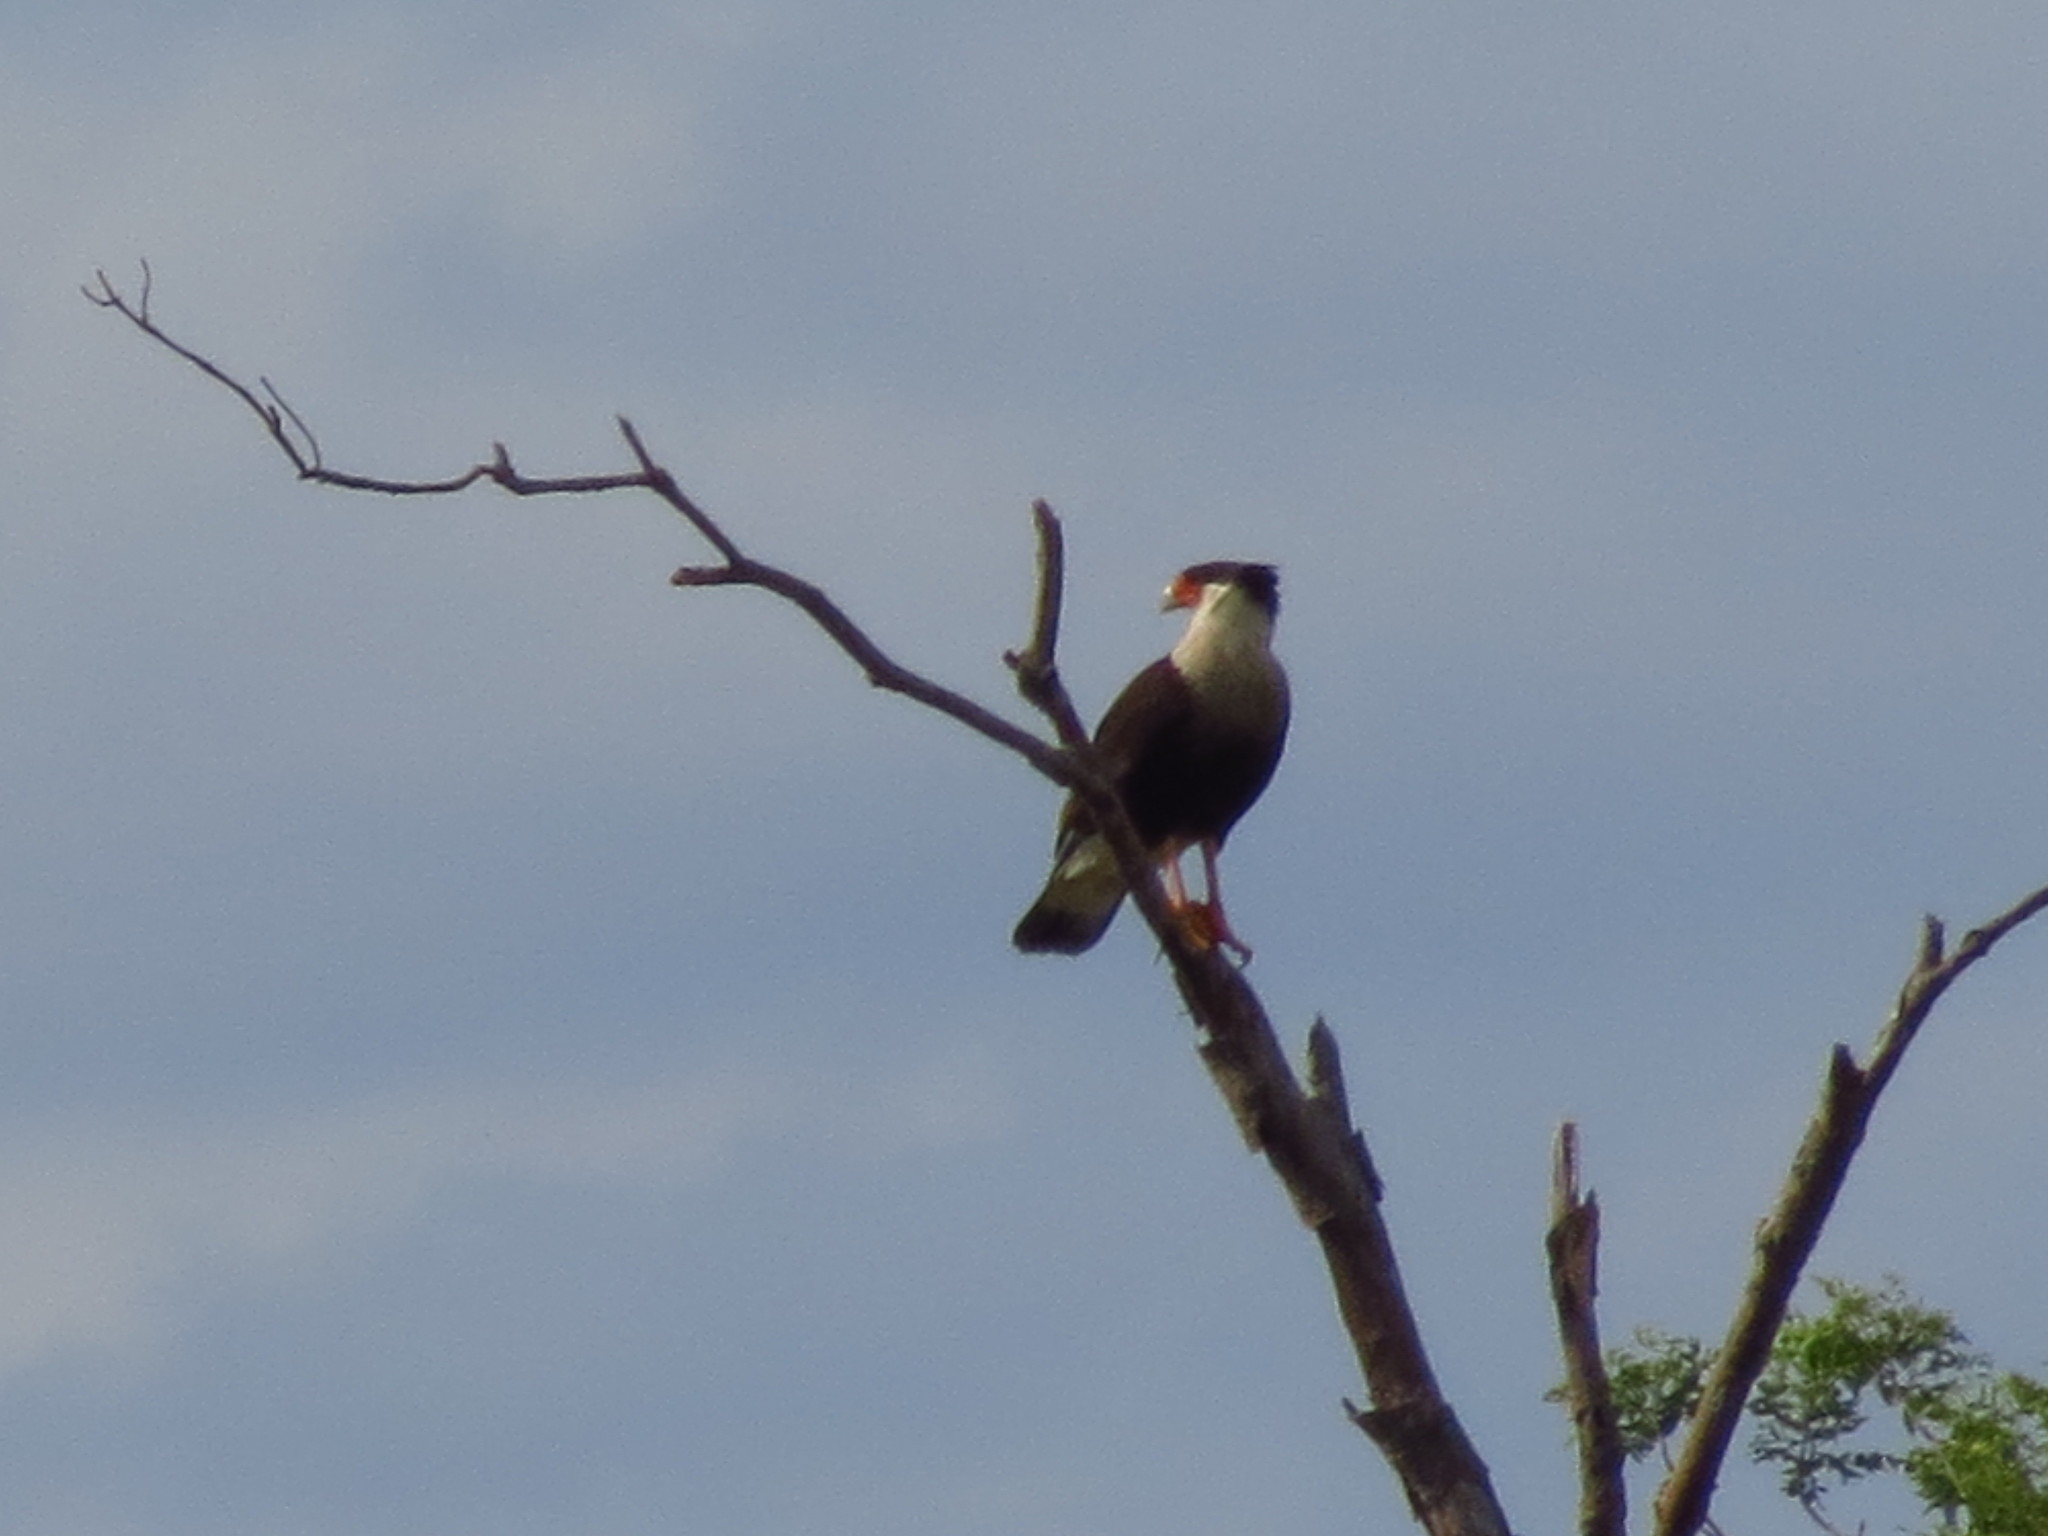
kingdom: Animalia
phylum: Chordata
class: Aves
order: Falconiformes
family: Falconidae
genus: Caracara
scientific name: Caracara plancus
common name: Southern caracara
